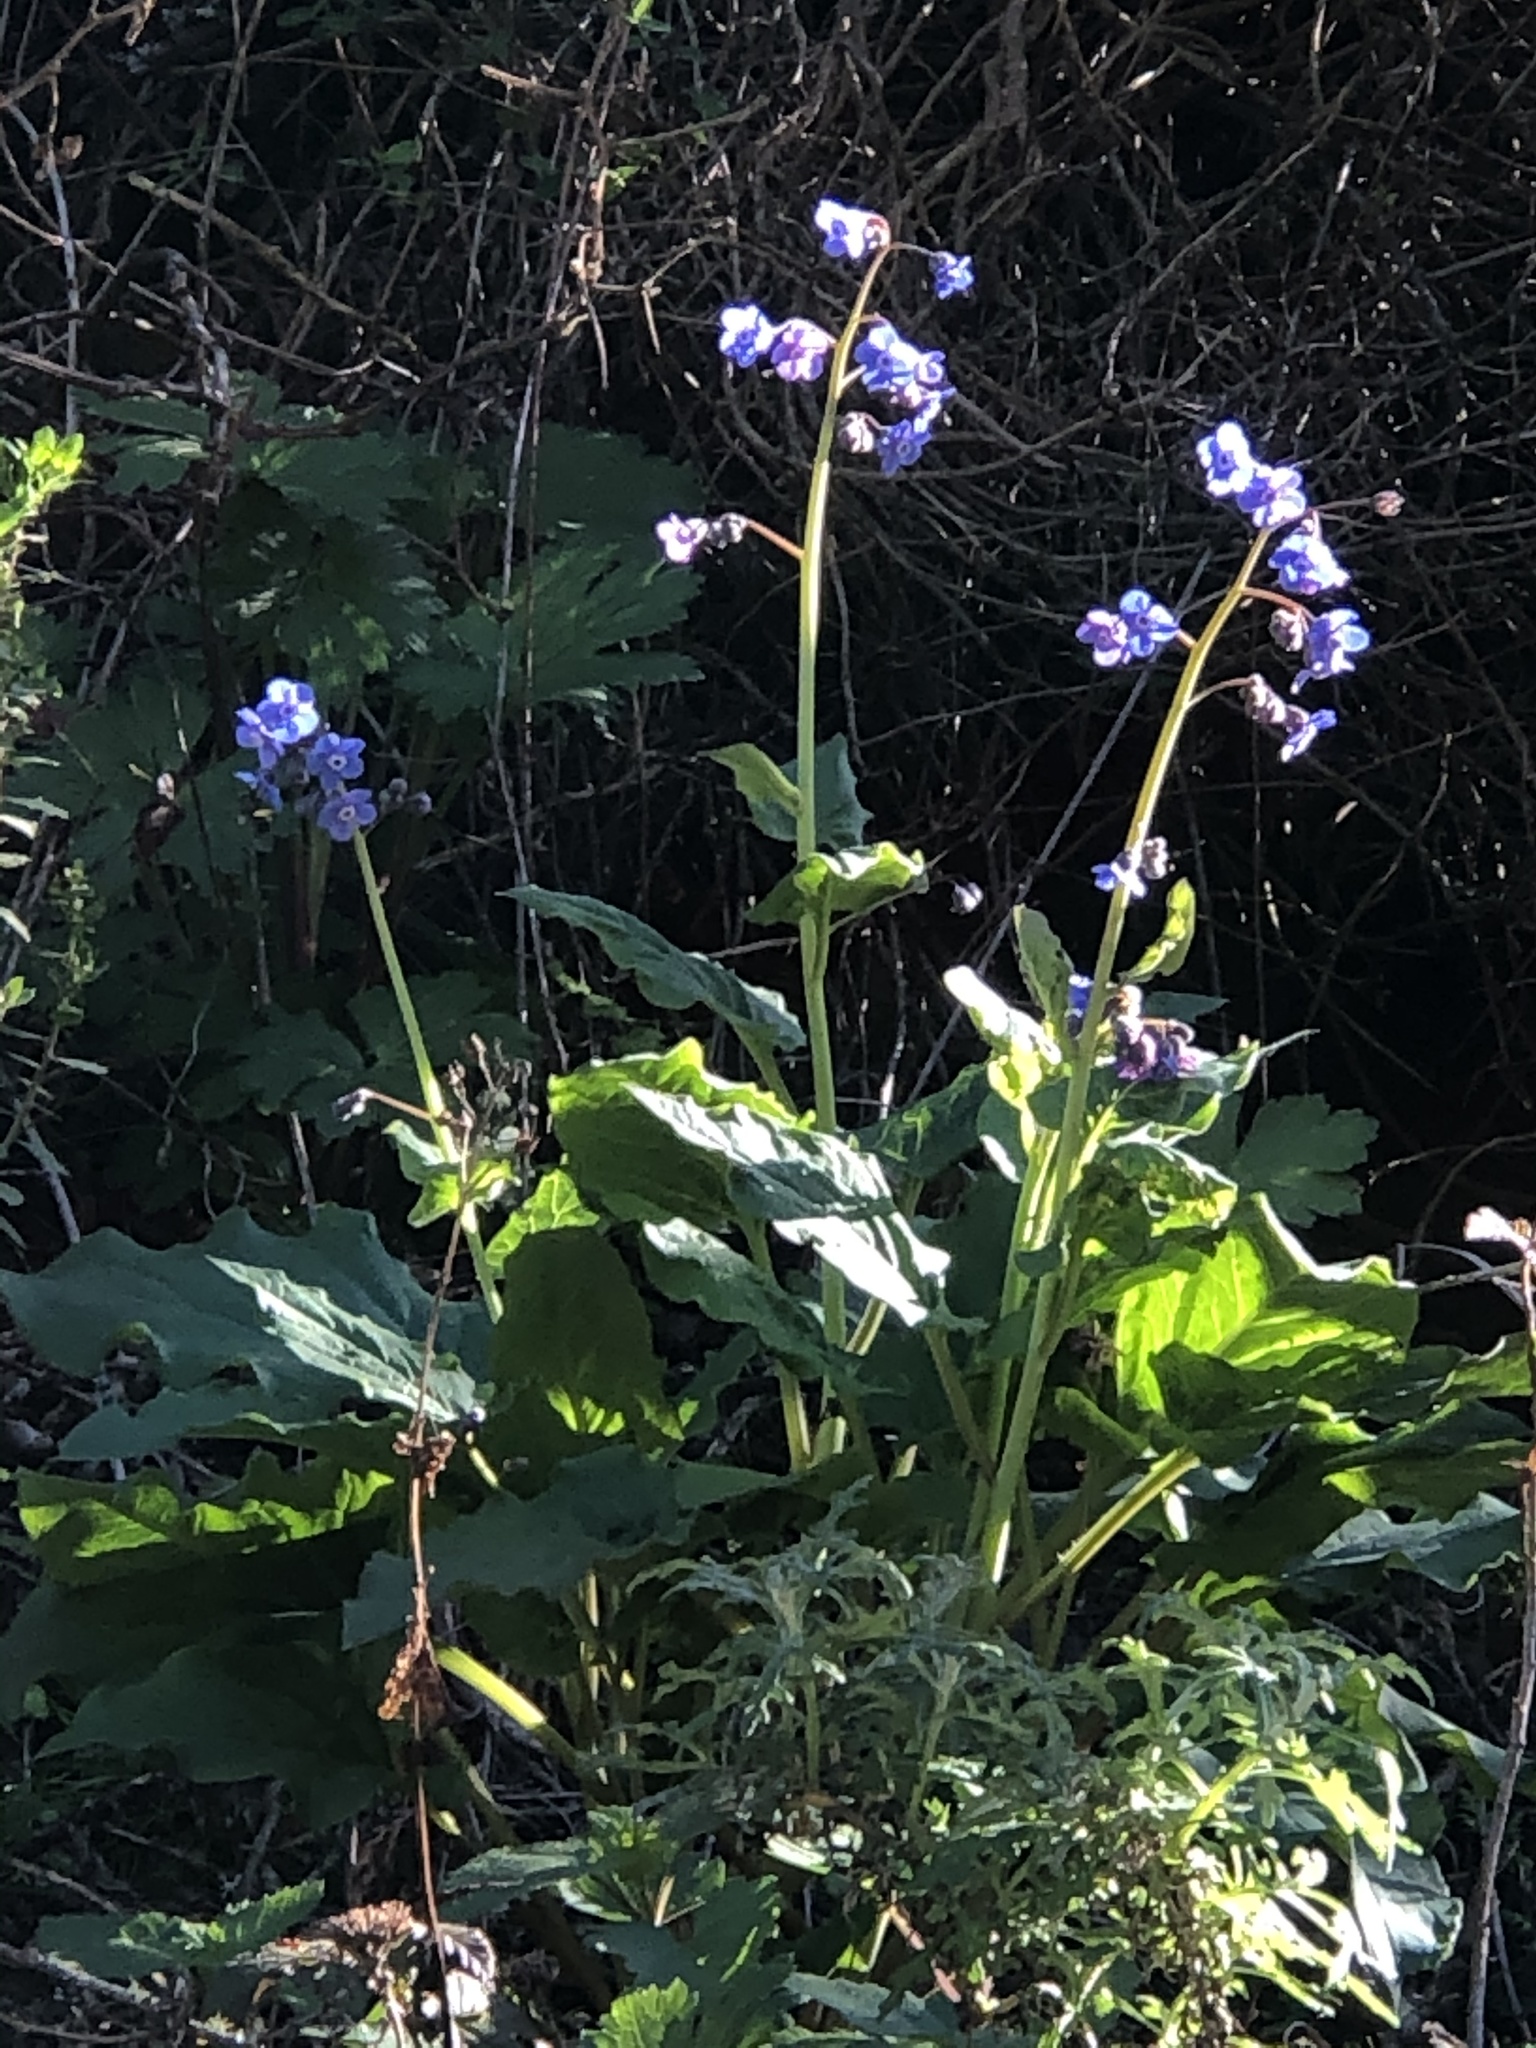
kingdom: Plantae
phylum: Tracheophyta
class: Magnoliopsida
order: Boraginales
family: Boraginaceae
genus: Adelinia
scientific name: Adelinia grande
